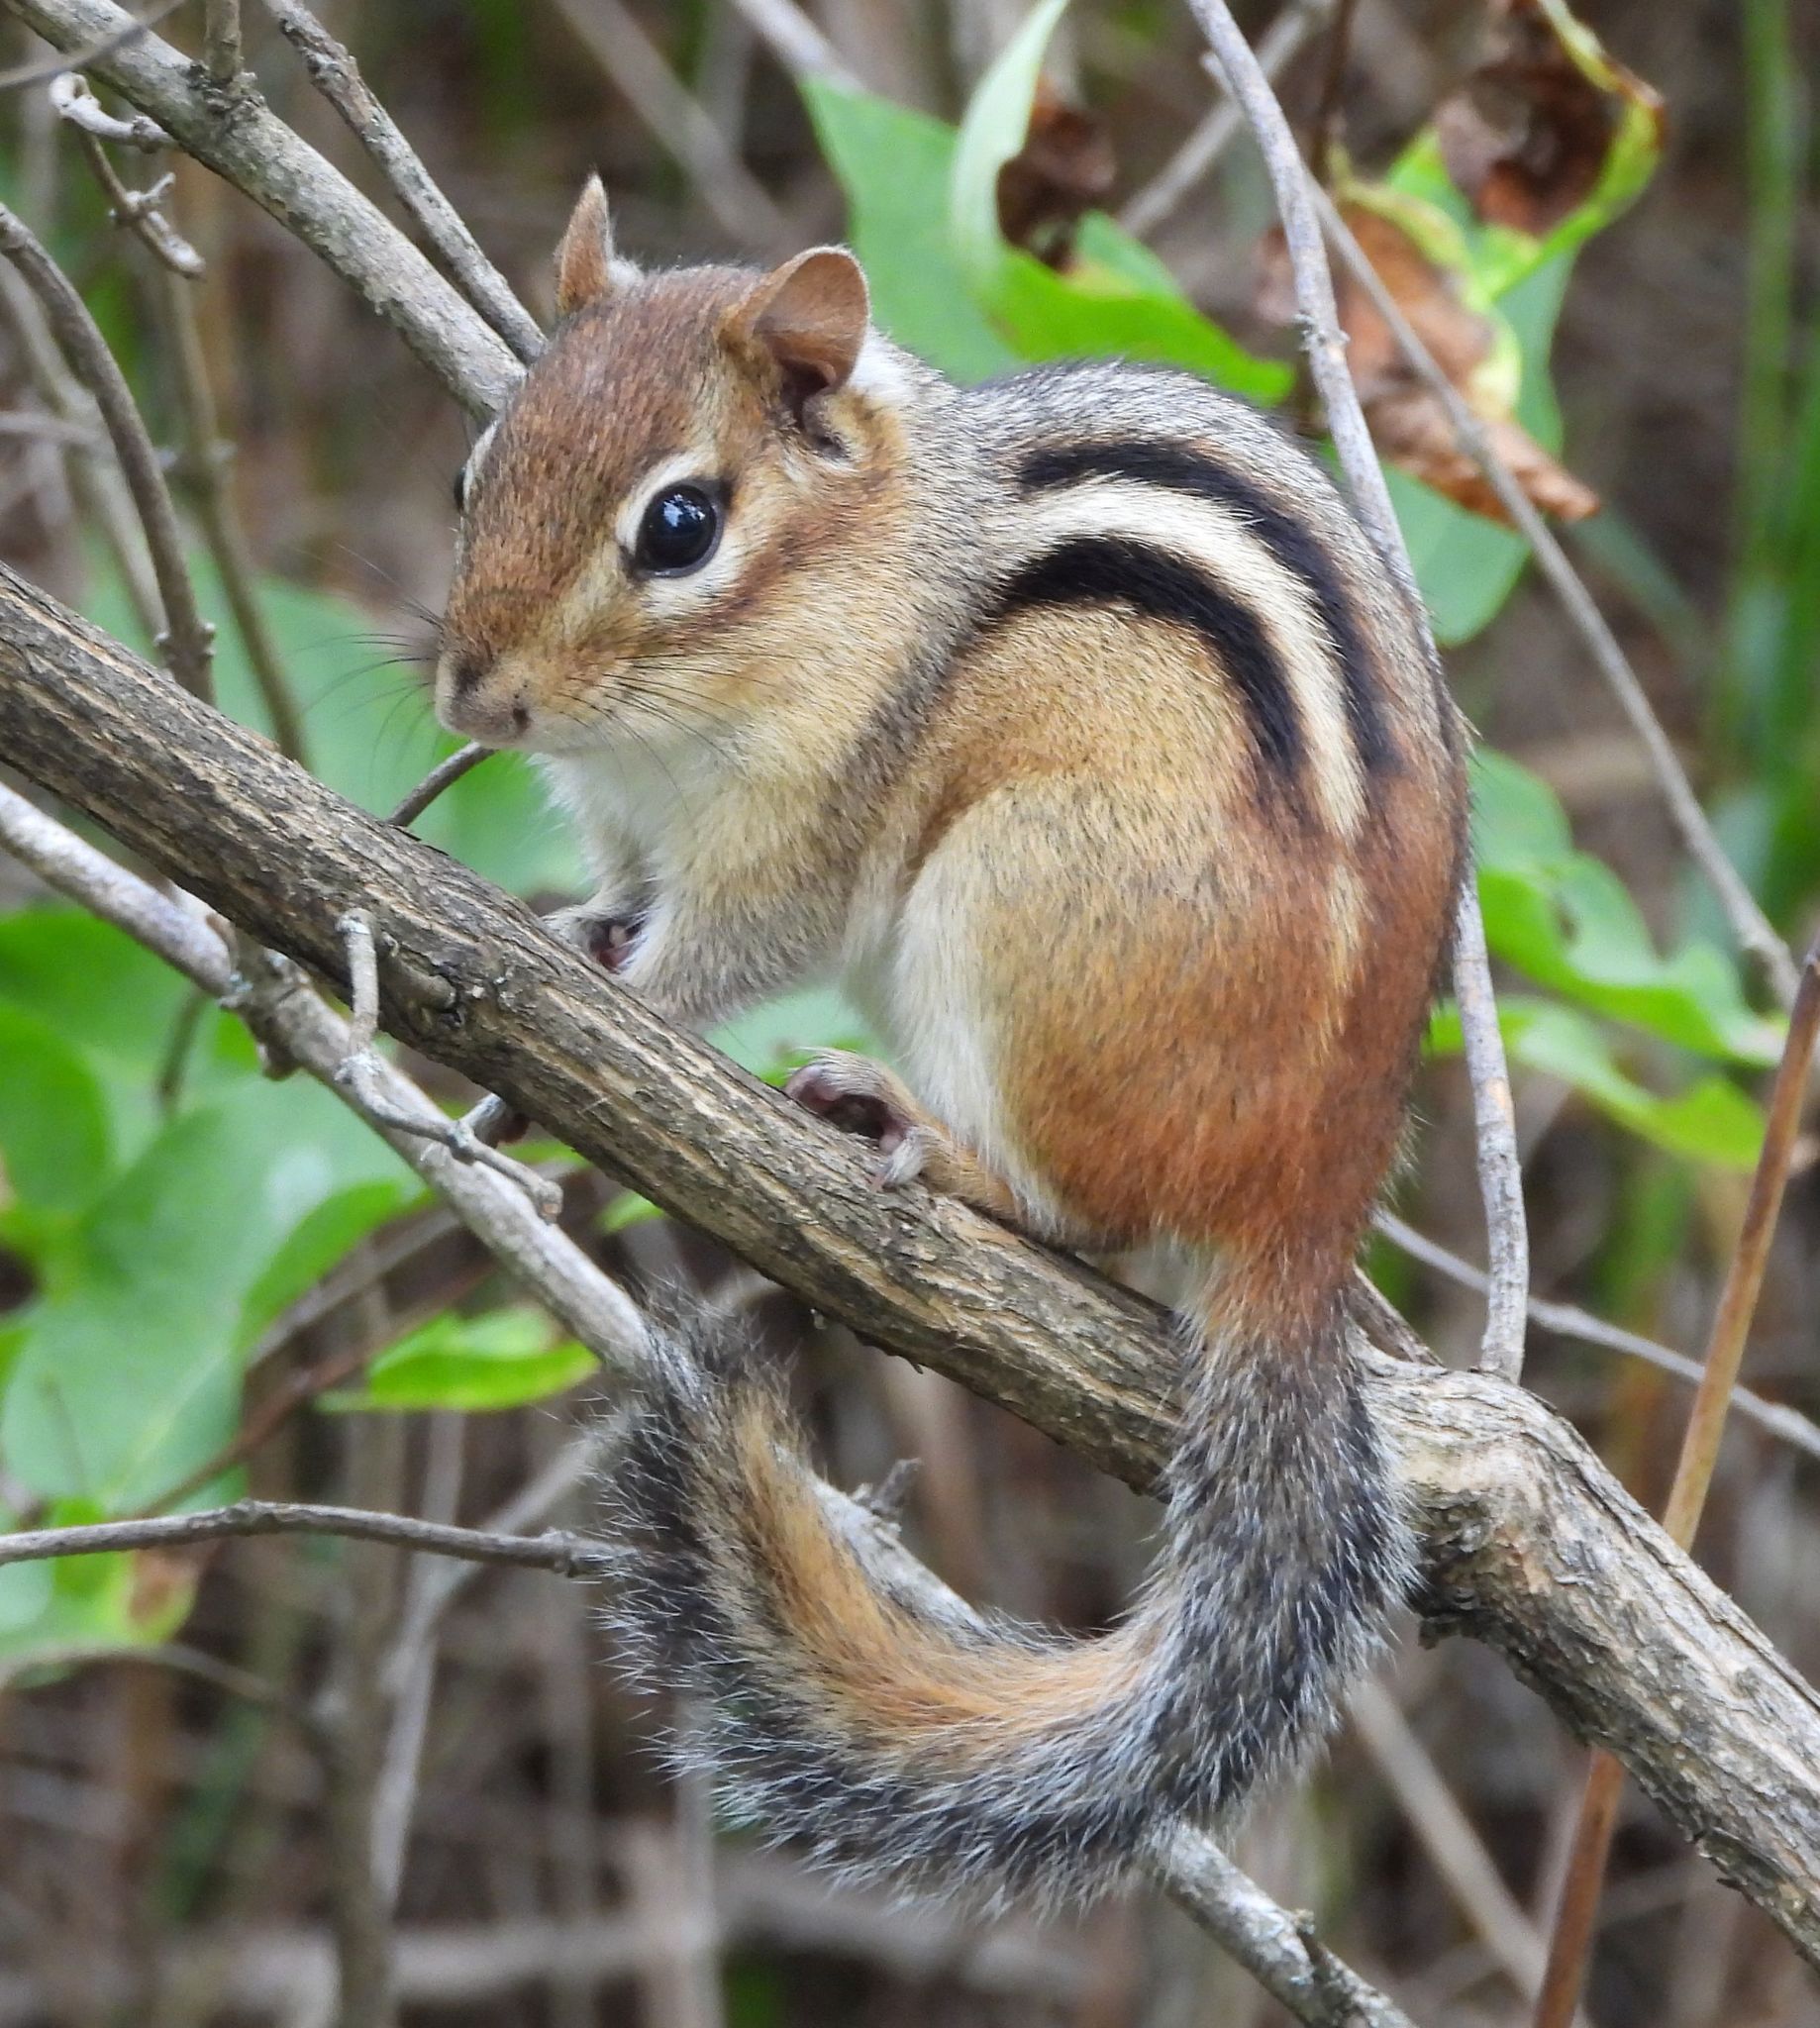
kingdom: Animalia
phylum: Chordata
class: Mammalia
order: Rodentia
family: Sciuridae
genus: Tamias
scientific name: Tamias striatus
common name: Eastern chipmunk
